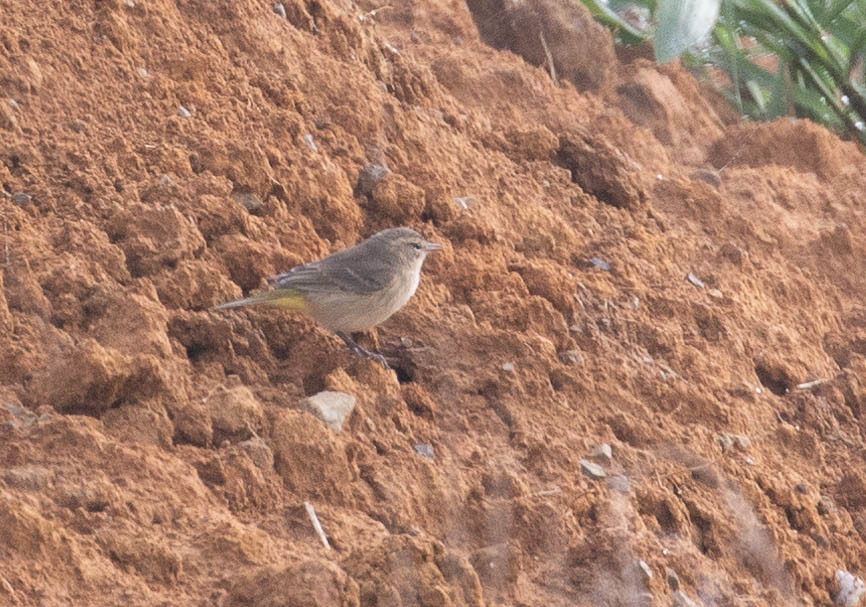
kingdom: Animalia
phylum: Chordata
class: Aves
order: Passeriformes
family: Parulidae
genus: Setophaga
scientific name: Setophaga palmarum
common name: Palm warbler
